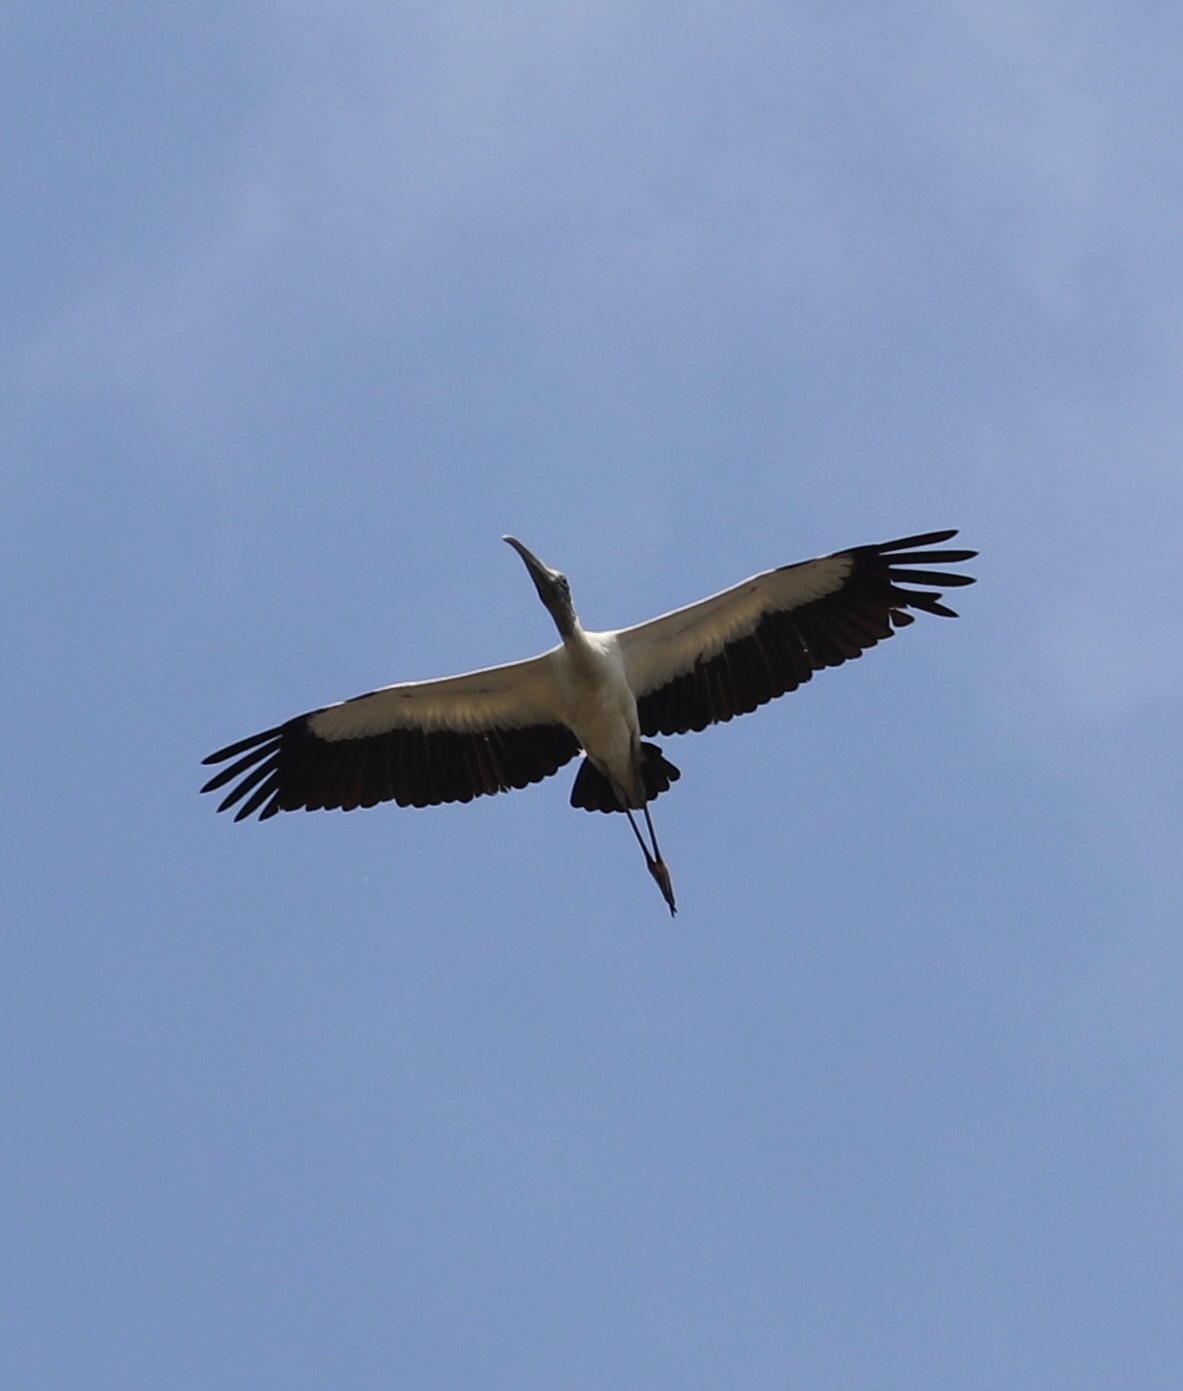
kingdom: Animalia
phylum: Chordata
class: Aves
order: Ciconiiformes
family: Ciconiidae
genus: Mycteria
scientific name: Mycteria americana
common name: Wood stork
